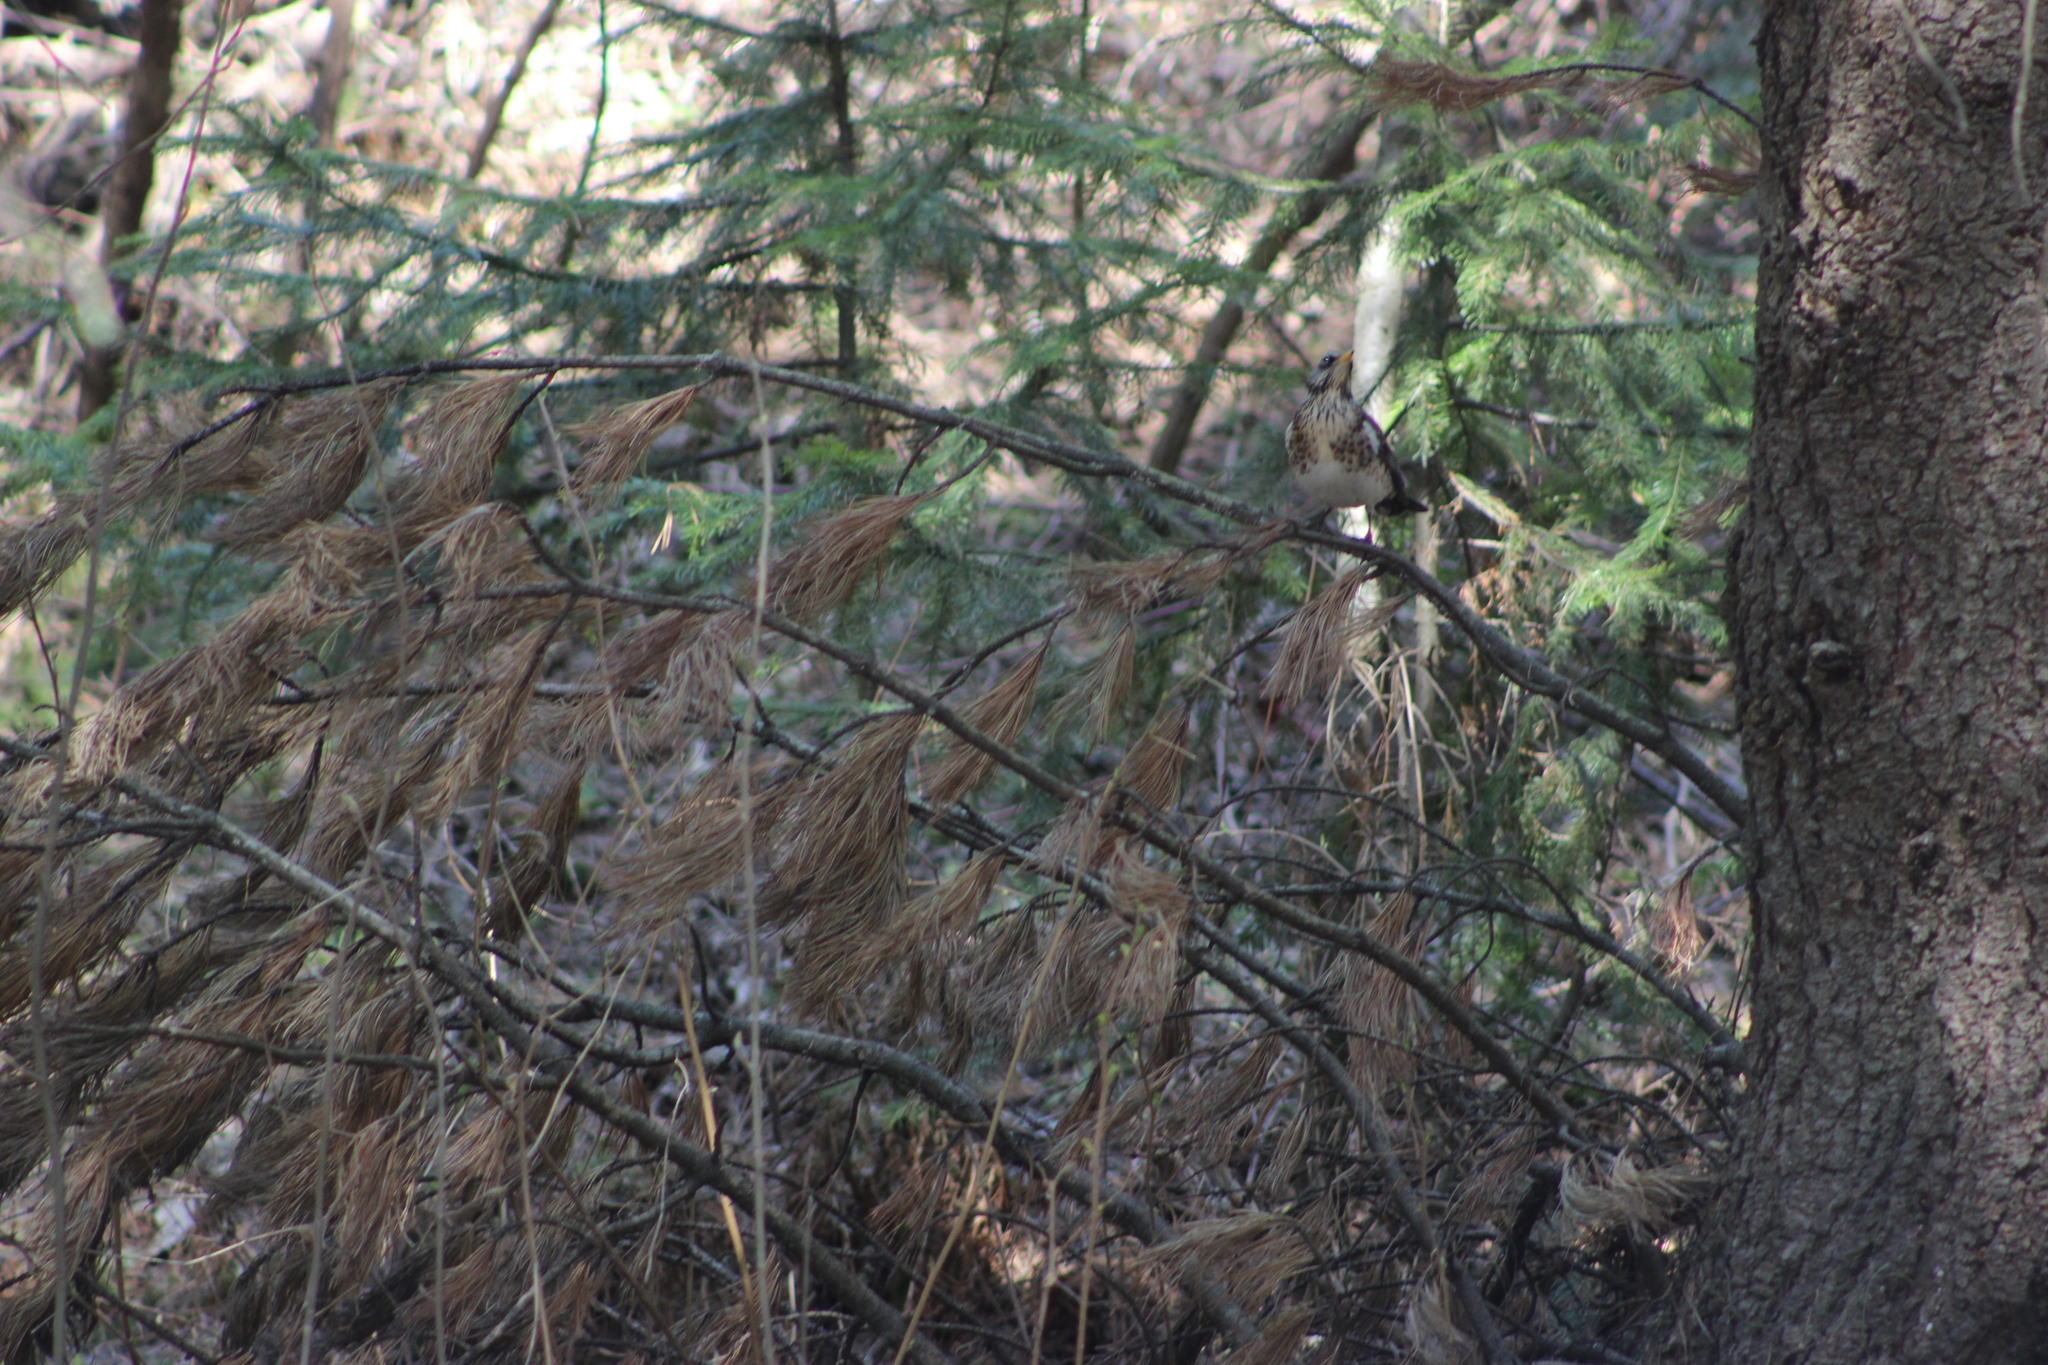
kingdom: Animalia
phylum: Chordata
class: Aves
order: Passeriformes
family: Turdidae
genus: Turdus
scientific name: Turdus pilaris
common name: Fieldfare
